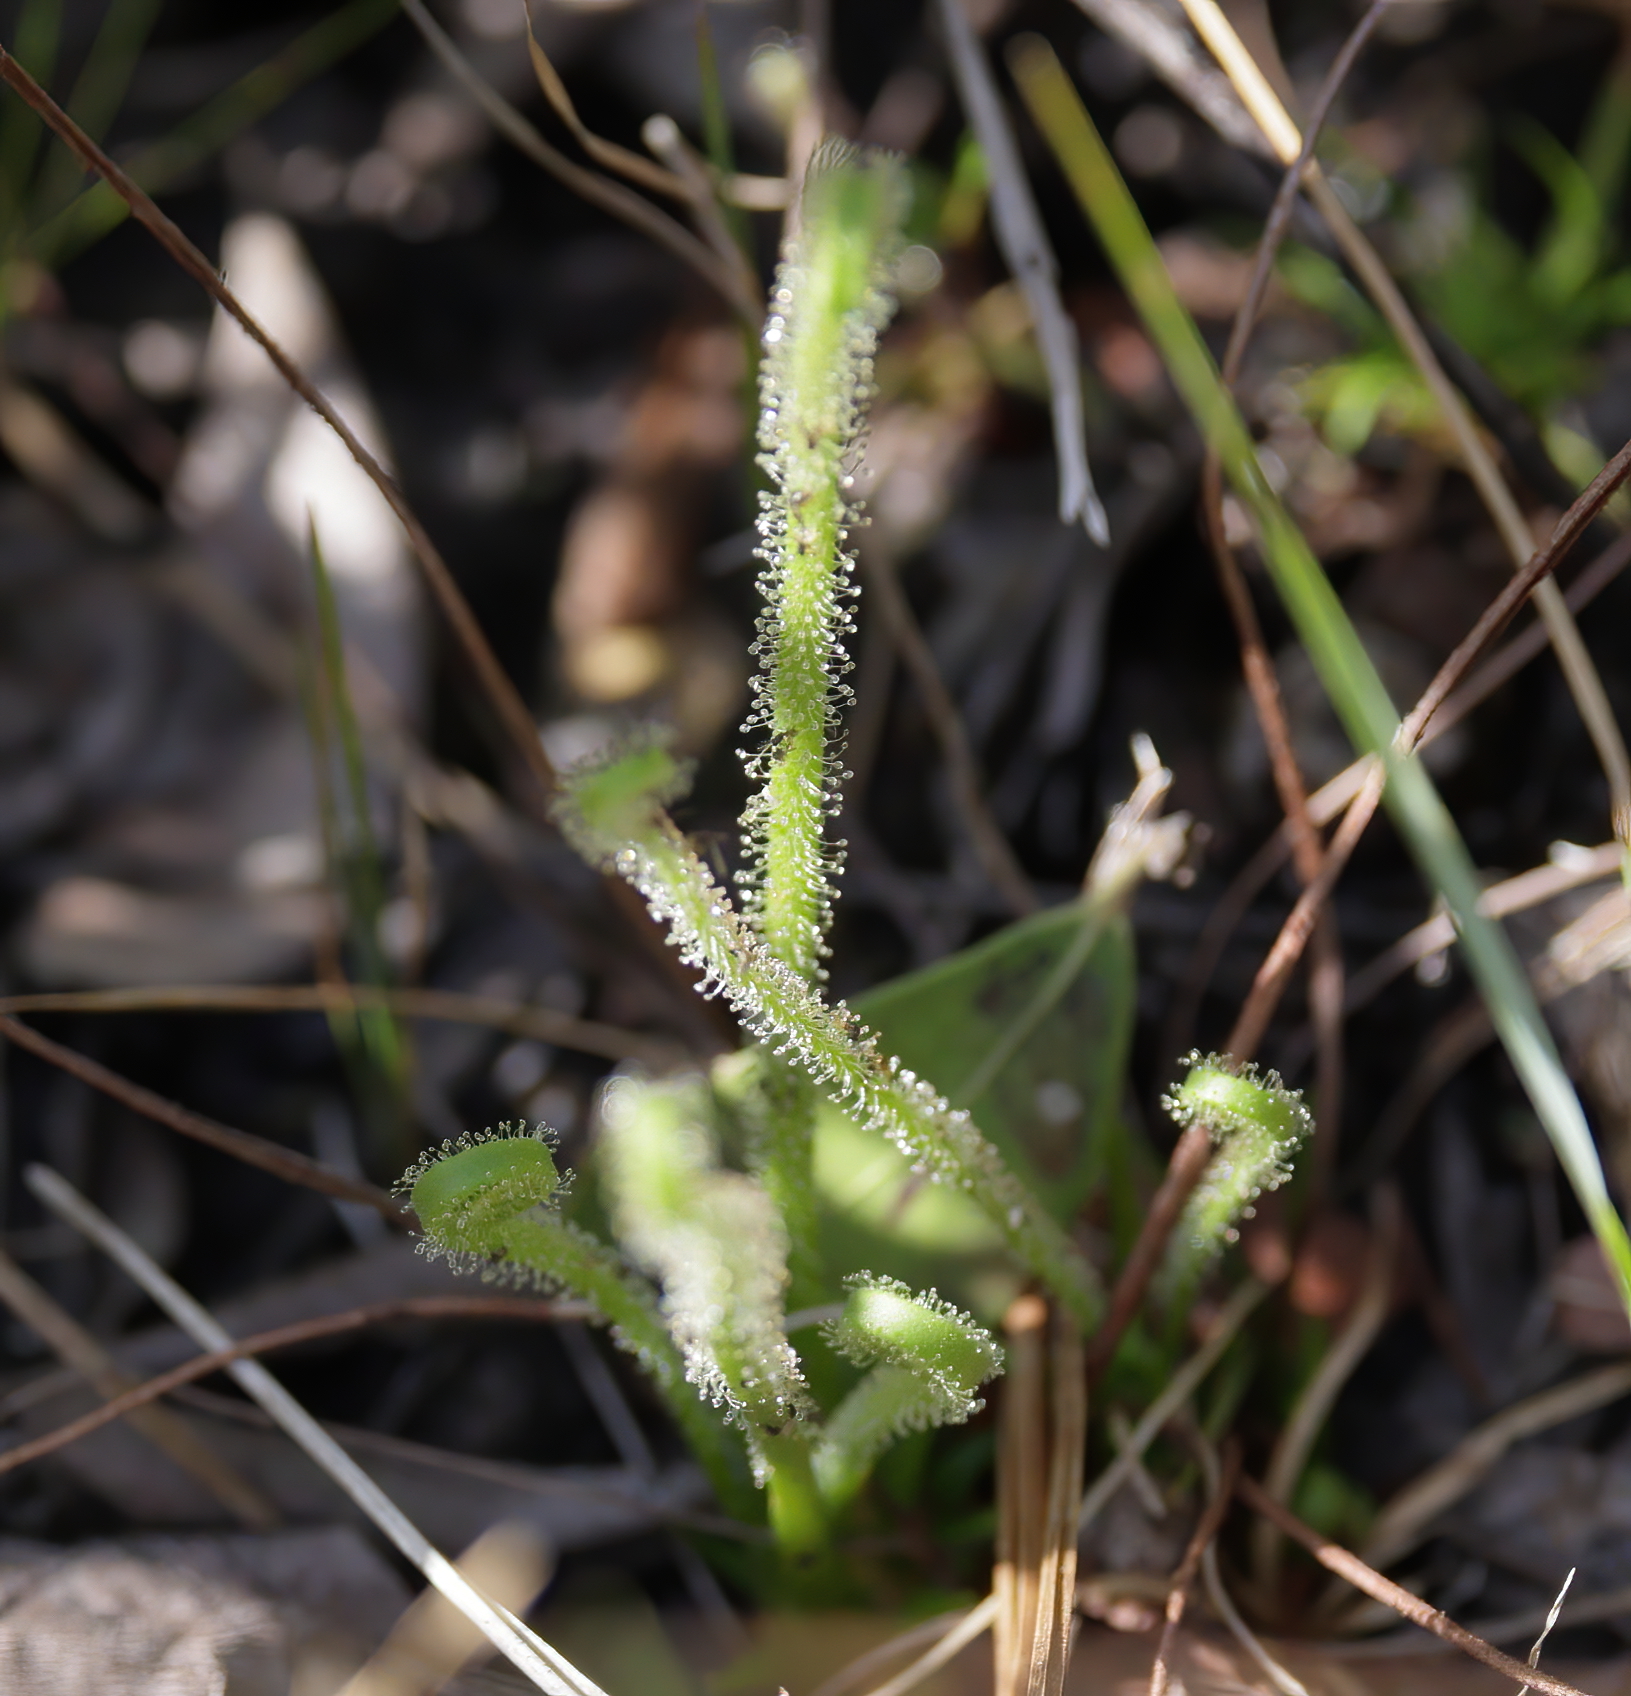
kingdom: Plantae
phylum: Tracheophyta
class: Magnoliopsida
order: Caryophyllales
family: Droseraceae
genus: Drosera
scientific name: Drosera filiformis
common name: Dew-thread
